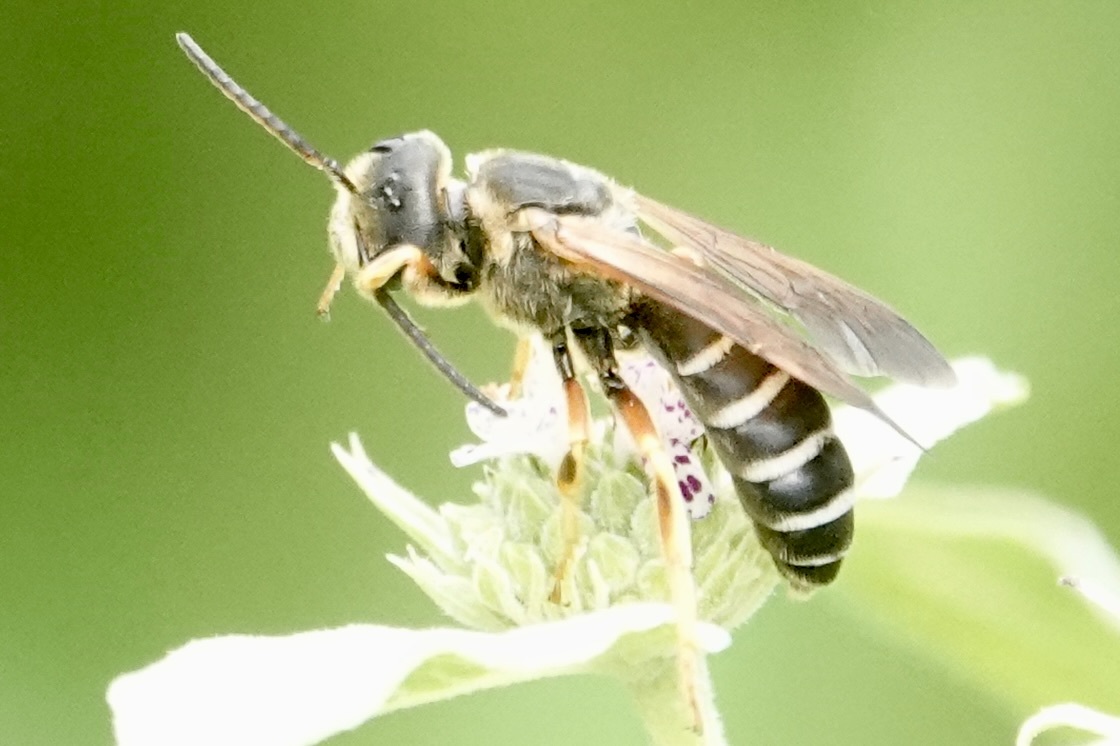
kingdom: Animalia
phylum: Arthropoda
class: Insecta
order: Hymenoptera
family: Halictidae
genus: Halictus
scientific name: Halictus parallelus
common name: Parallel-striped sweat bee
